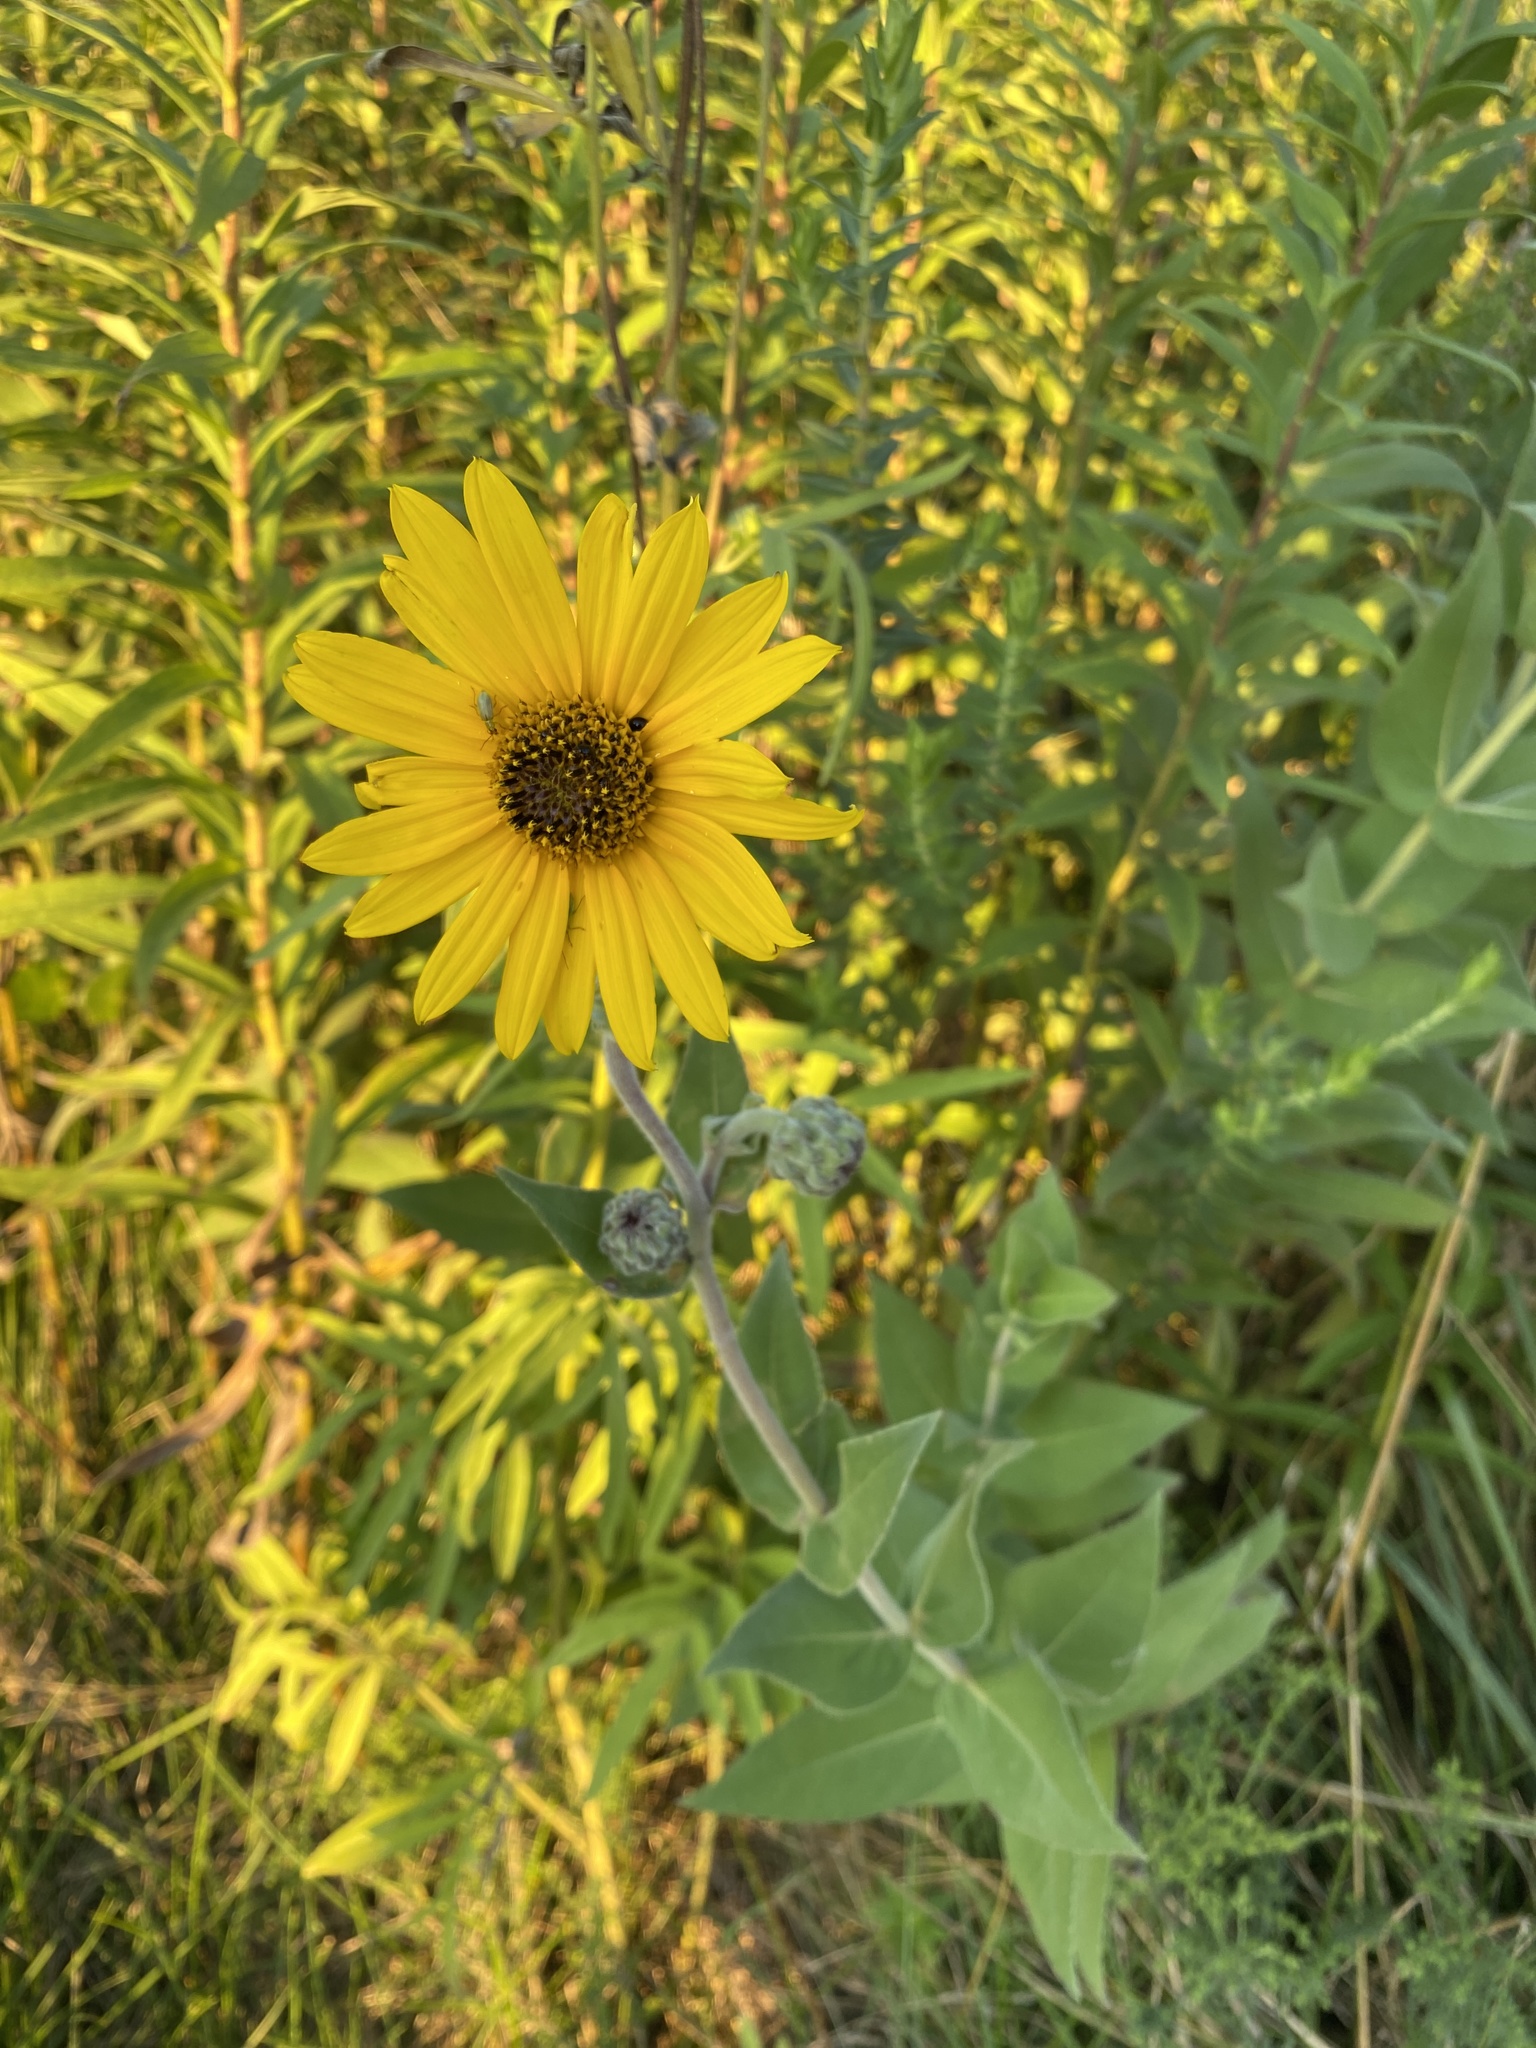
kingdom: Plantae
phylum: Tracheophyta
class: Magnoliopsida
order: Asterales
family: Asteraceae
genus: Helianthus
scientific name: Helianthus mollis
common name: Ashy sunflower
